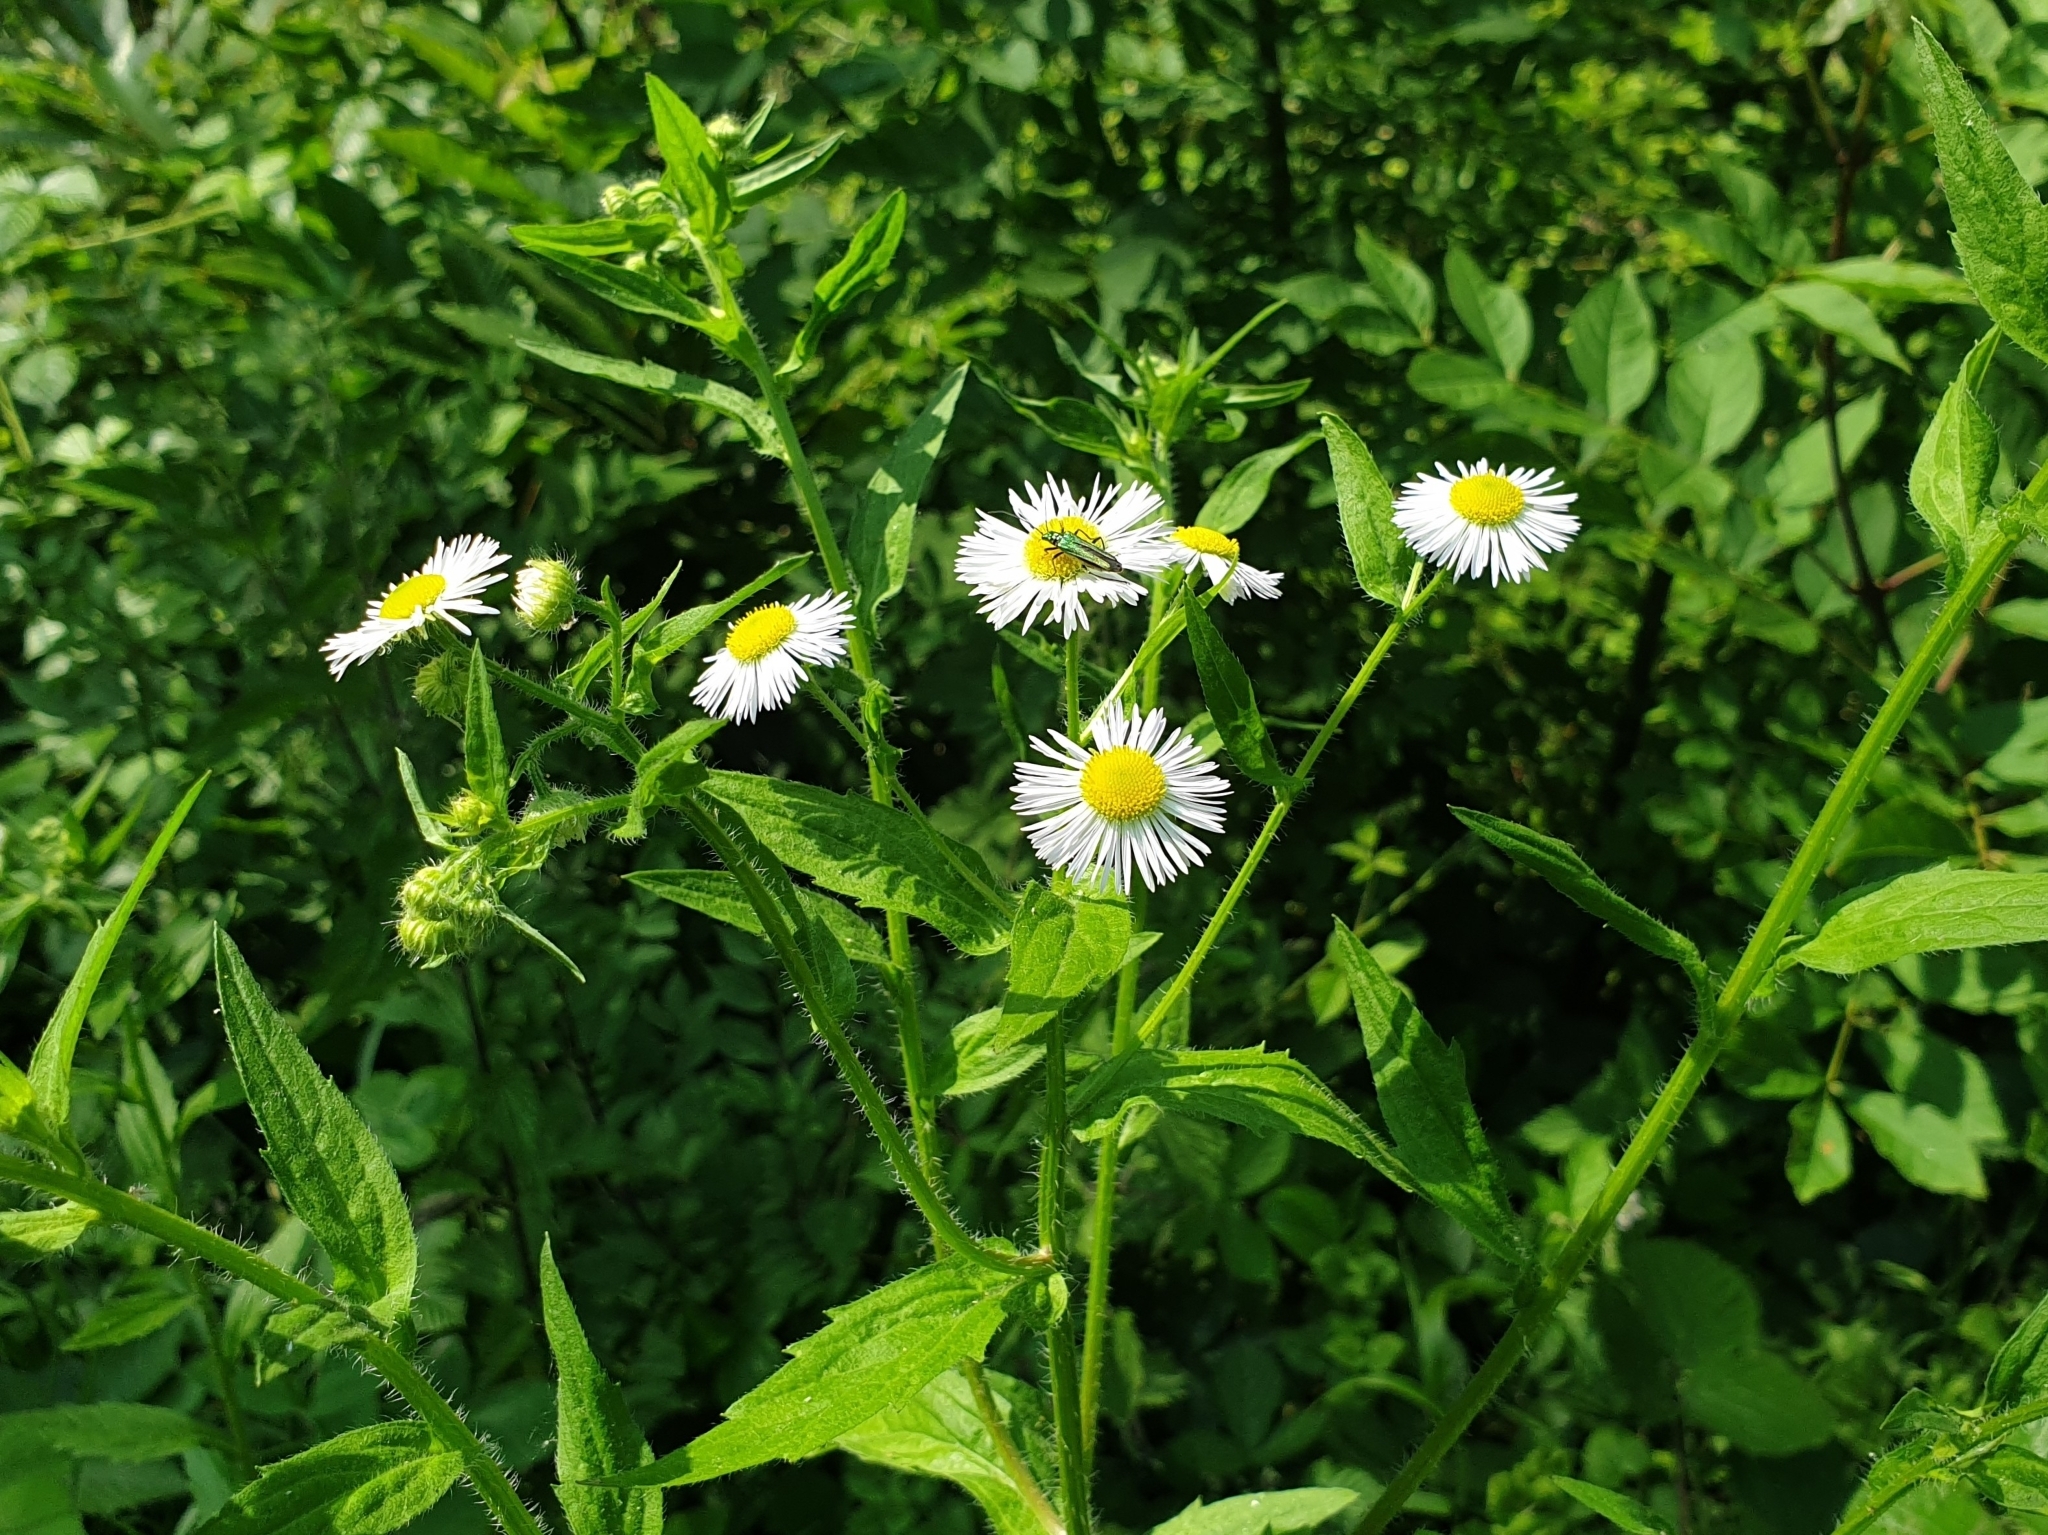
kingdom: Plantae
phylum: Tracheophyta
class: Magnoliopsida
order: Asterales
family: Asteraceae
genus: Erigeron
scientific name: Erigeron annuus
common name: Tall fleabane
